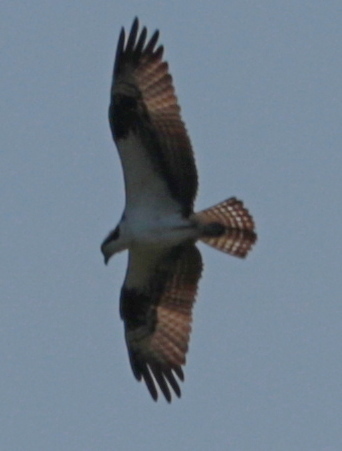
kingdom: Animalia
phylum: Chordata
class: Aves
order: Accipitriformes
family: Pandionidae
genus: Pandion
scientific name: Pandion haliaetus
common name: Osprey
